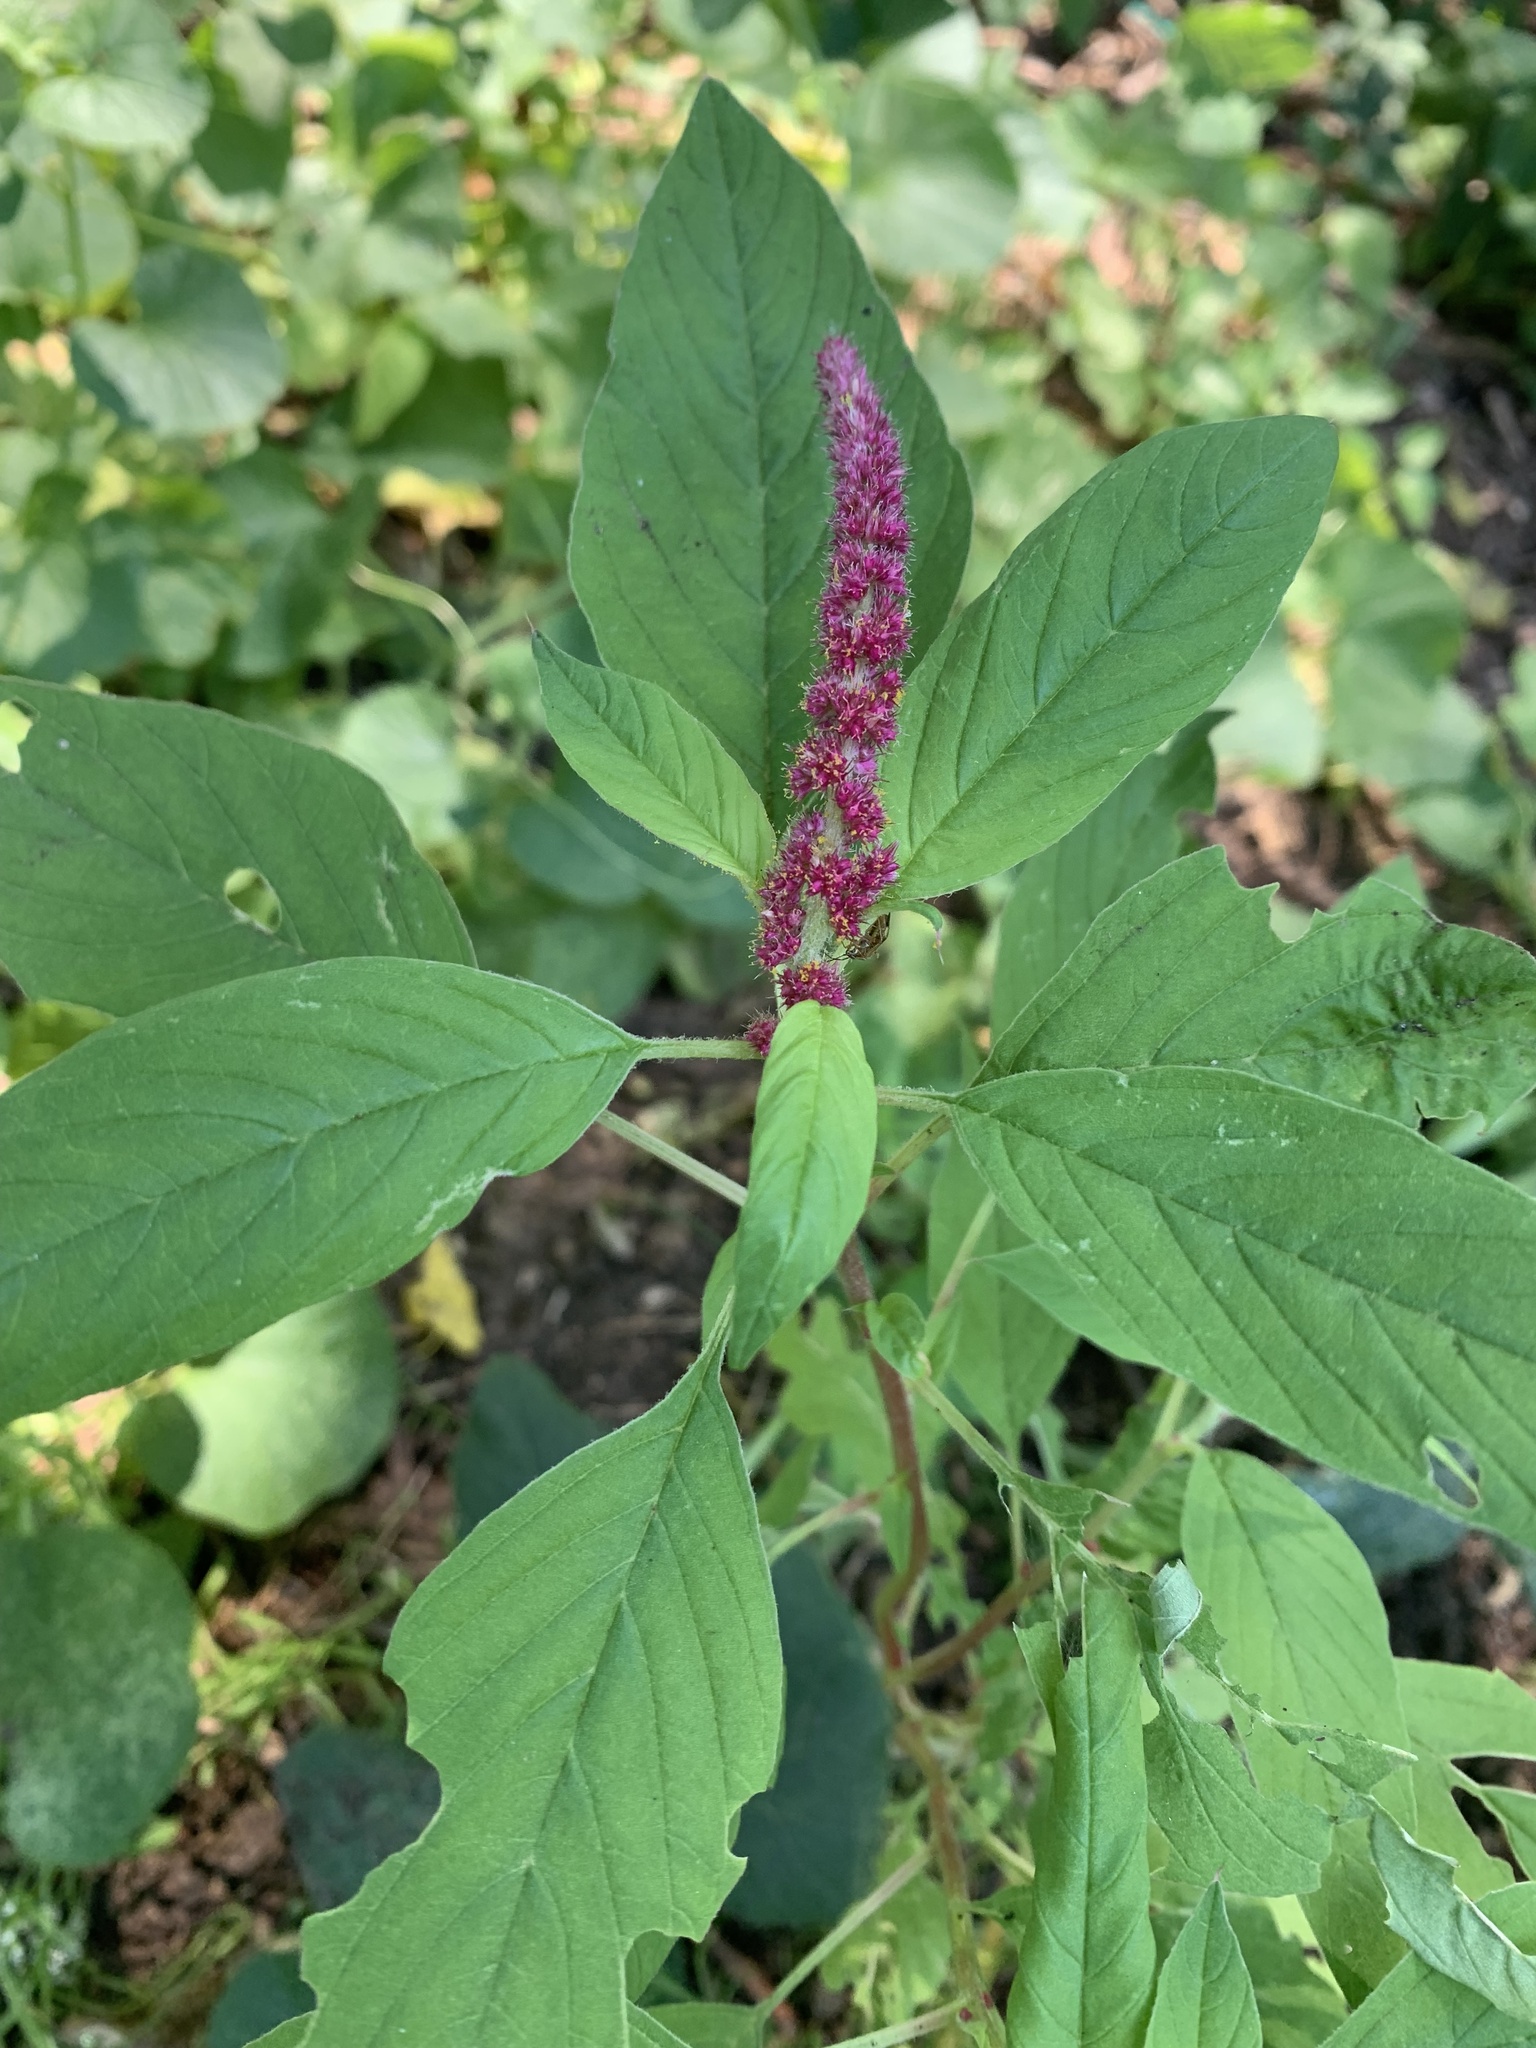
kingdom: Plantae
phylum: Tracheophyta
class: Magnoliopsida
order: Caryophyllales
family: Amaranthaceae
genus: Amaranthus
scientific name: Amaranthus cruentus
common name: Purple amaranth
